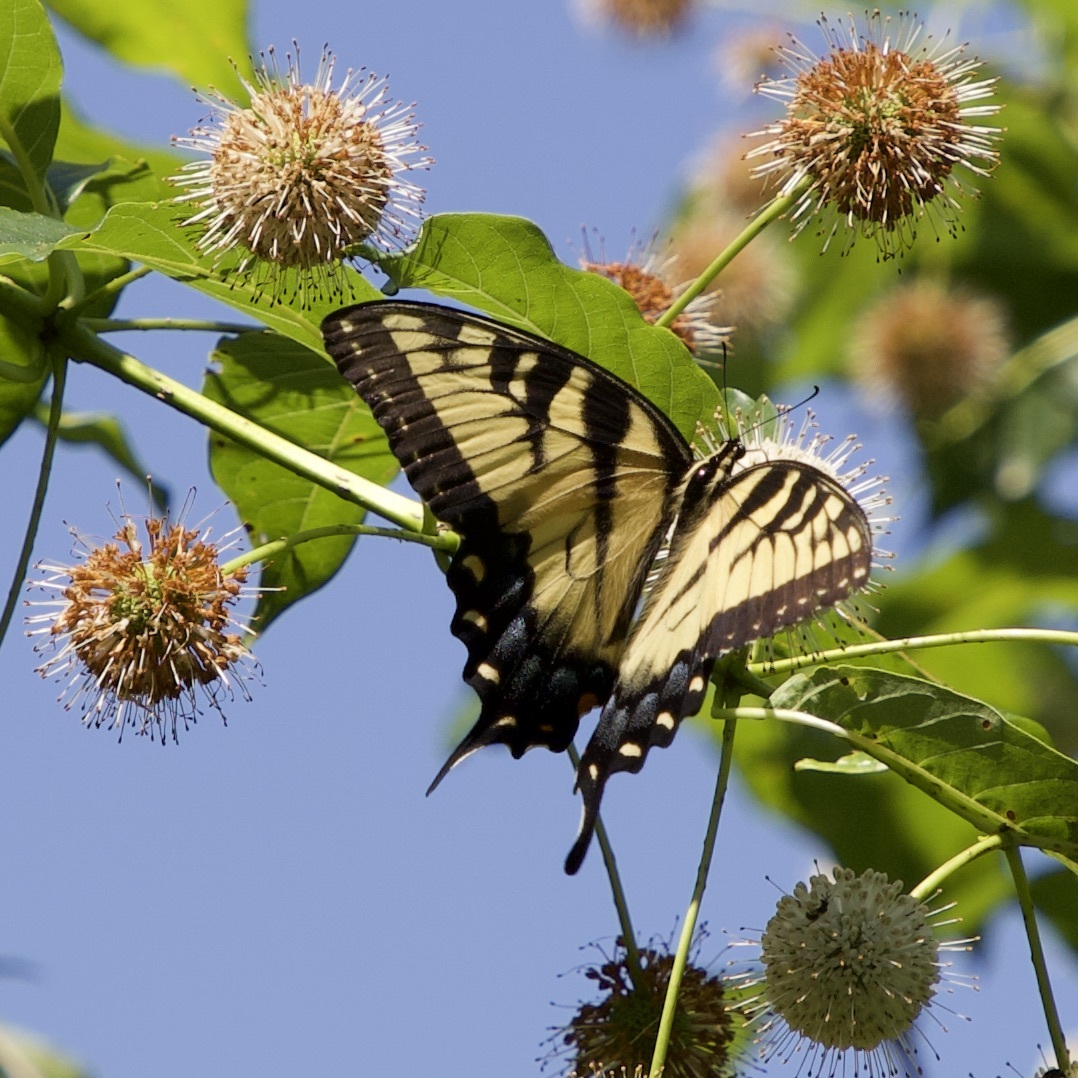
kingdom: Animalia
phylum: Arthropoda
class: Insecta
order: Lepidoptera
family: Papilionidae
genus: Papilio
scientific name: Papilio glaucus
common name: Tiger swallowtail
